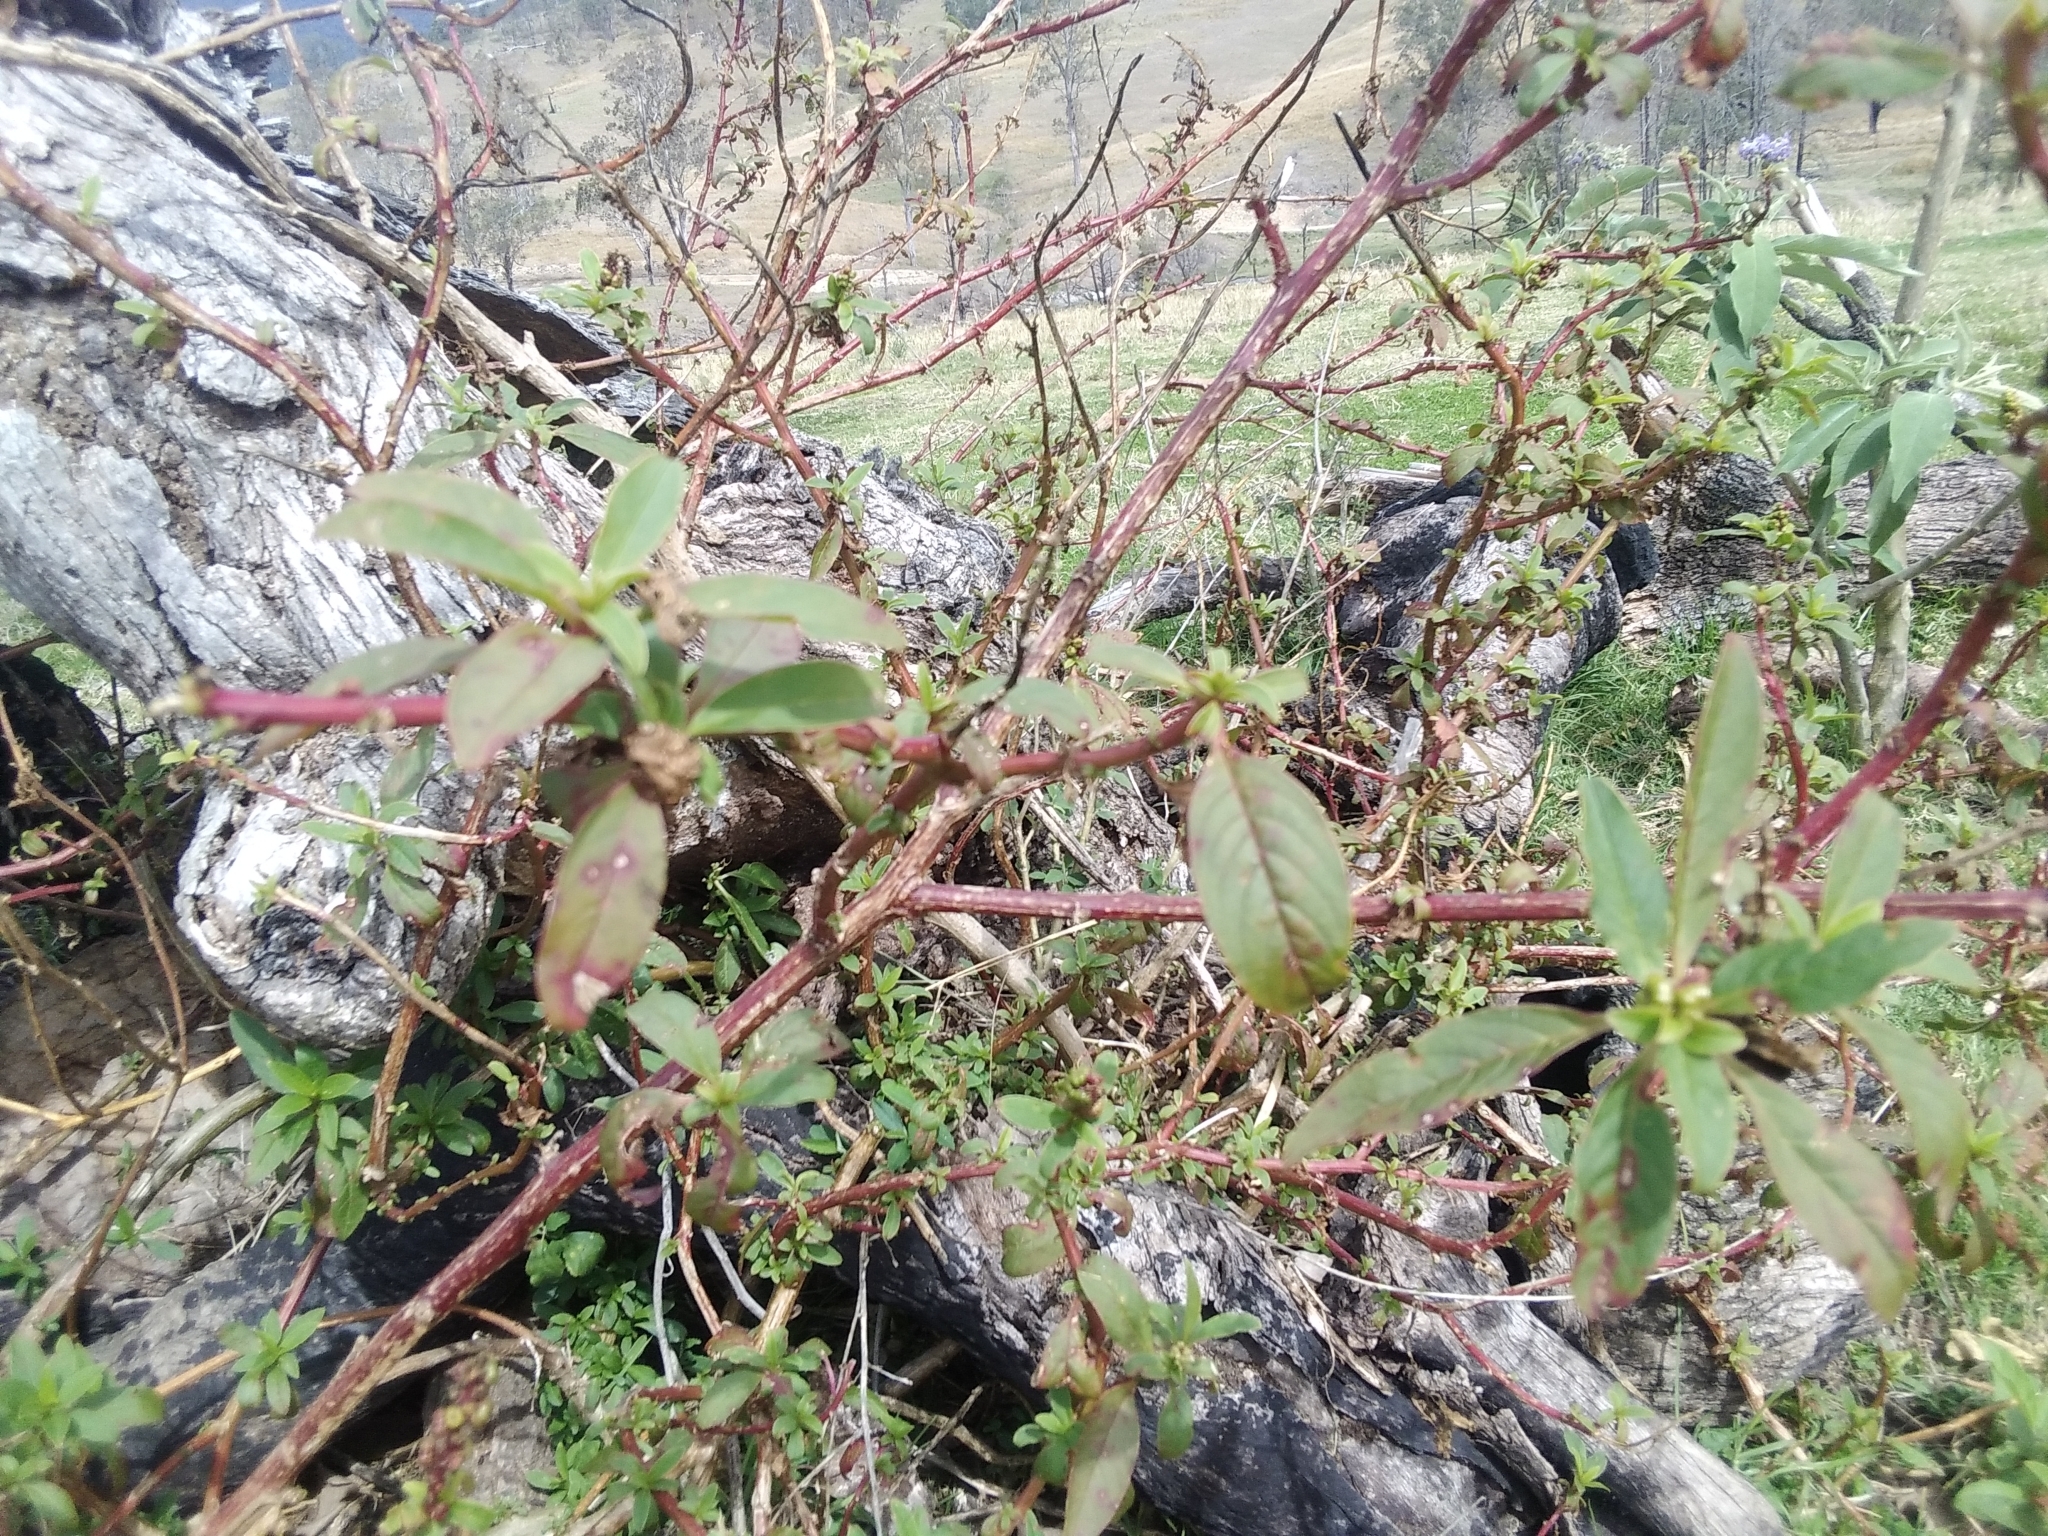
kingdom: Plantae
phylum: Tracheophyta
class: Magnoliopsida
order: Caryophyllales
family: Phytolaccaceae
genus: Phytolacca
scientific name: Phytolacca icosandra
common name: Button pokeweed
